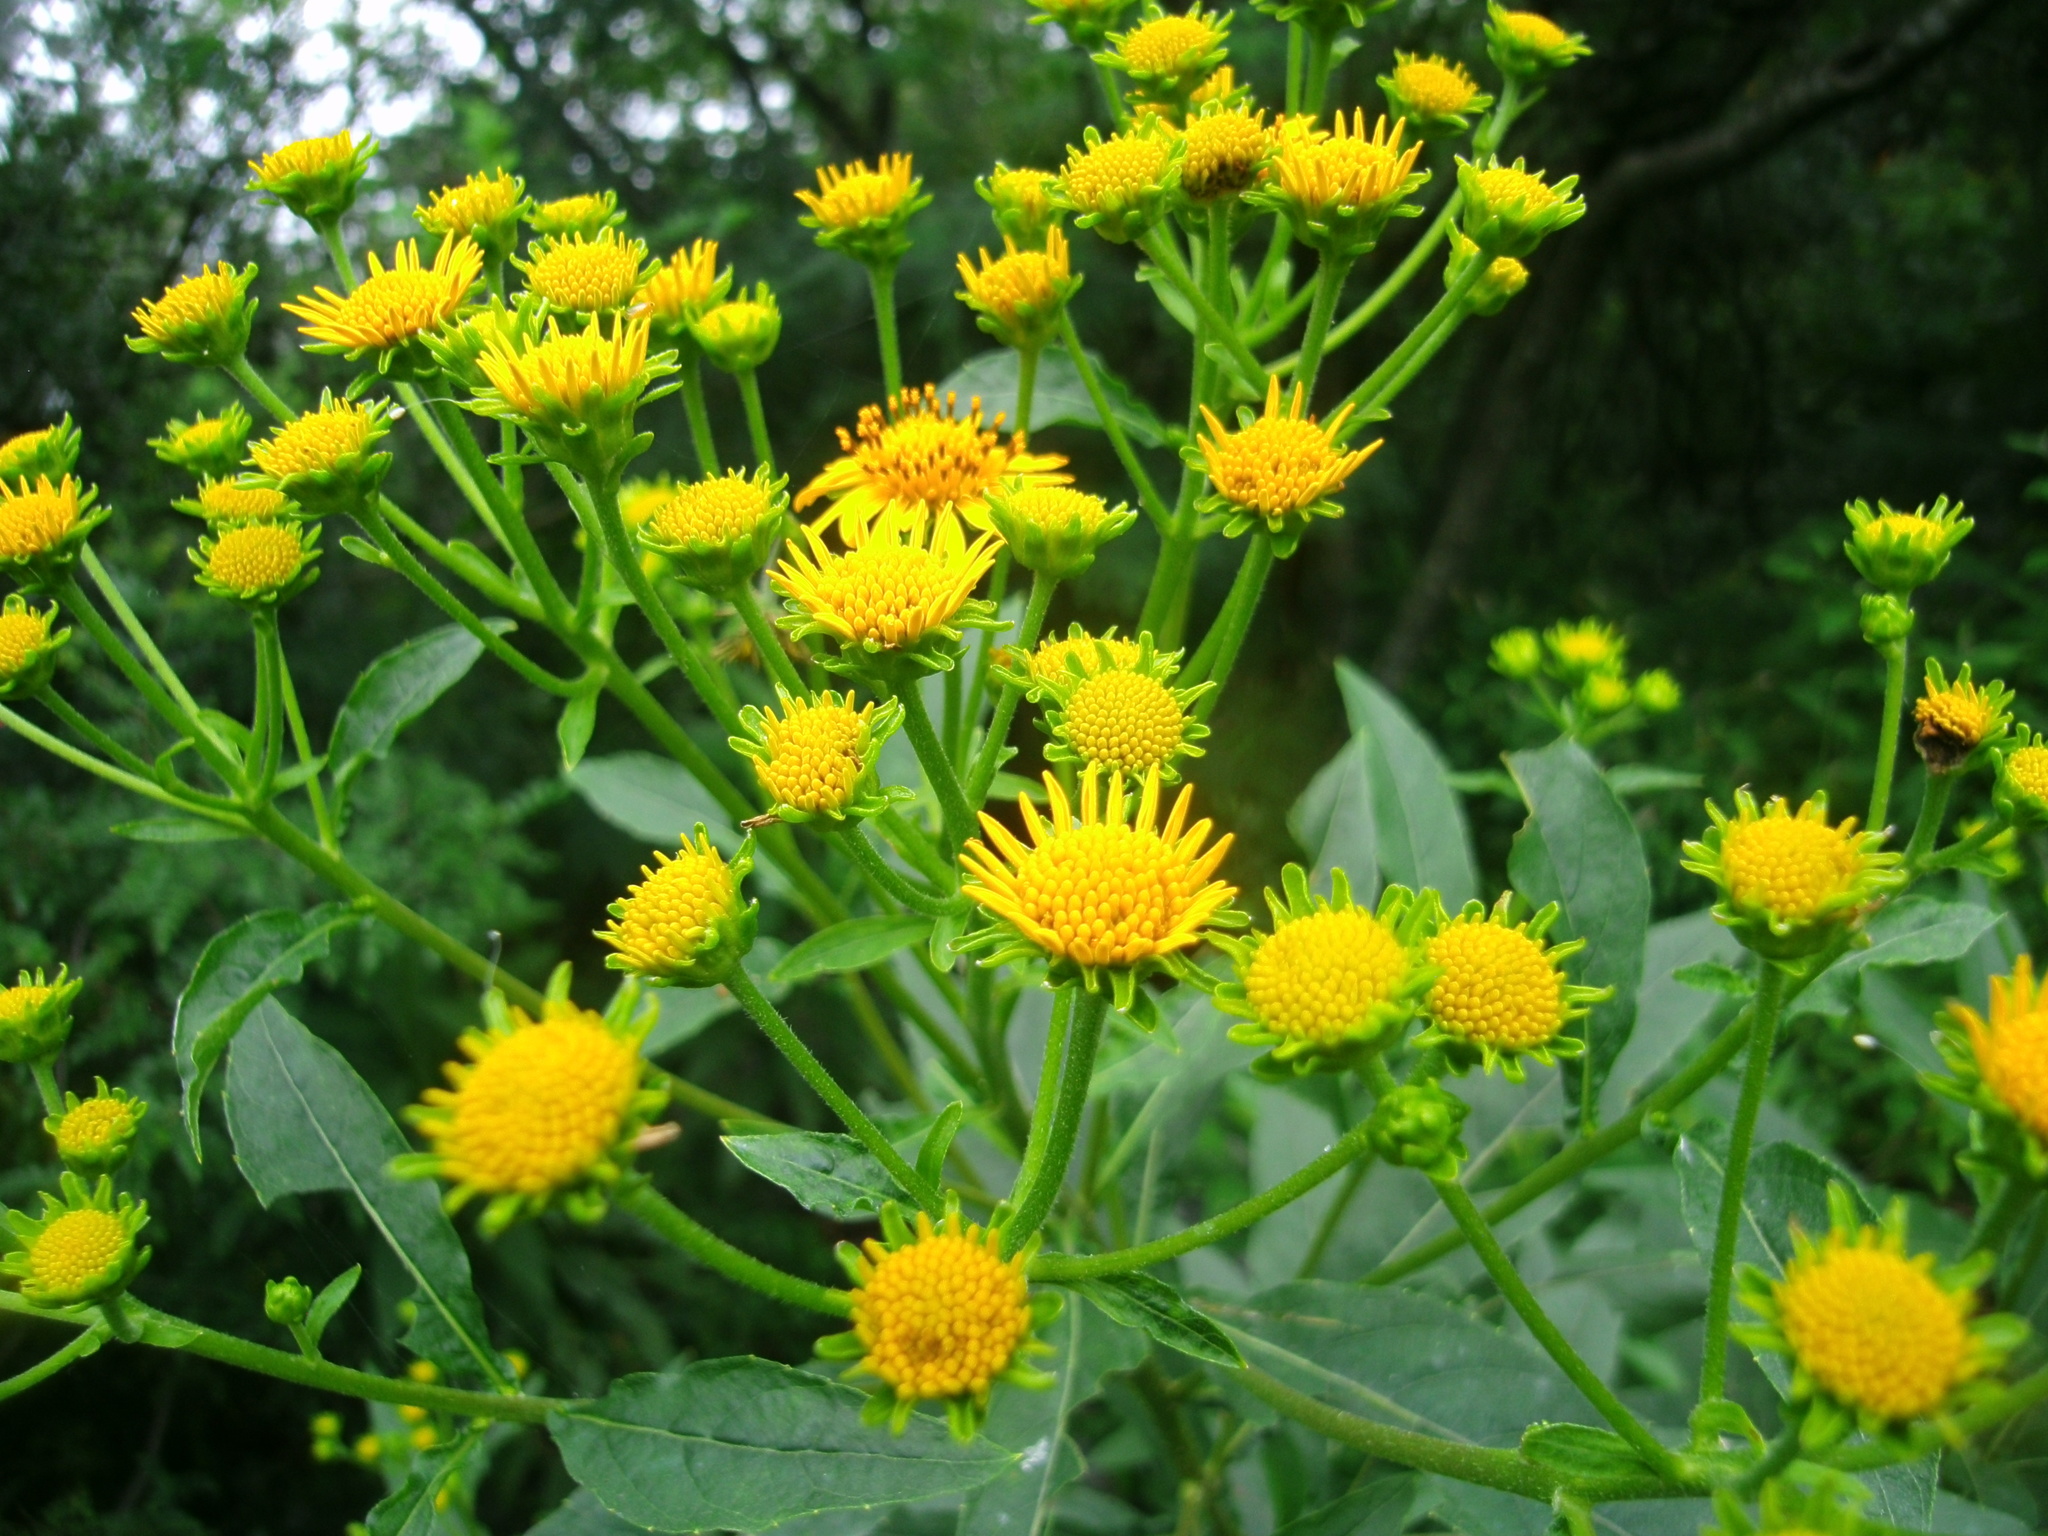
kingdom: Plantae
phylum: Tracheophyta
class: Magnoliopsida
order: Asterales
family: Asteraceae
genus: Verbesina
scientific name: Verbesina persicifolia
